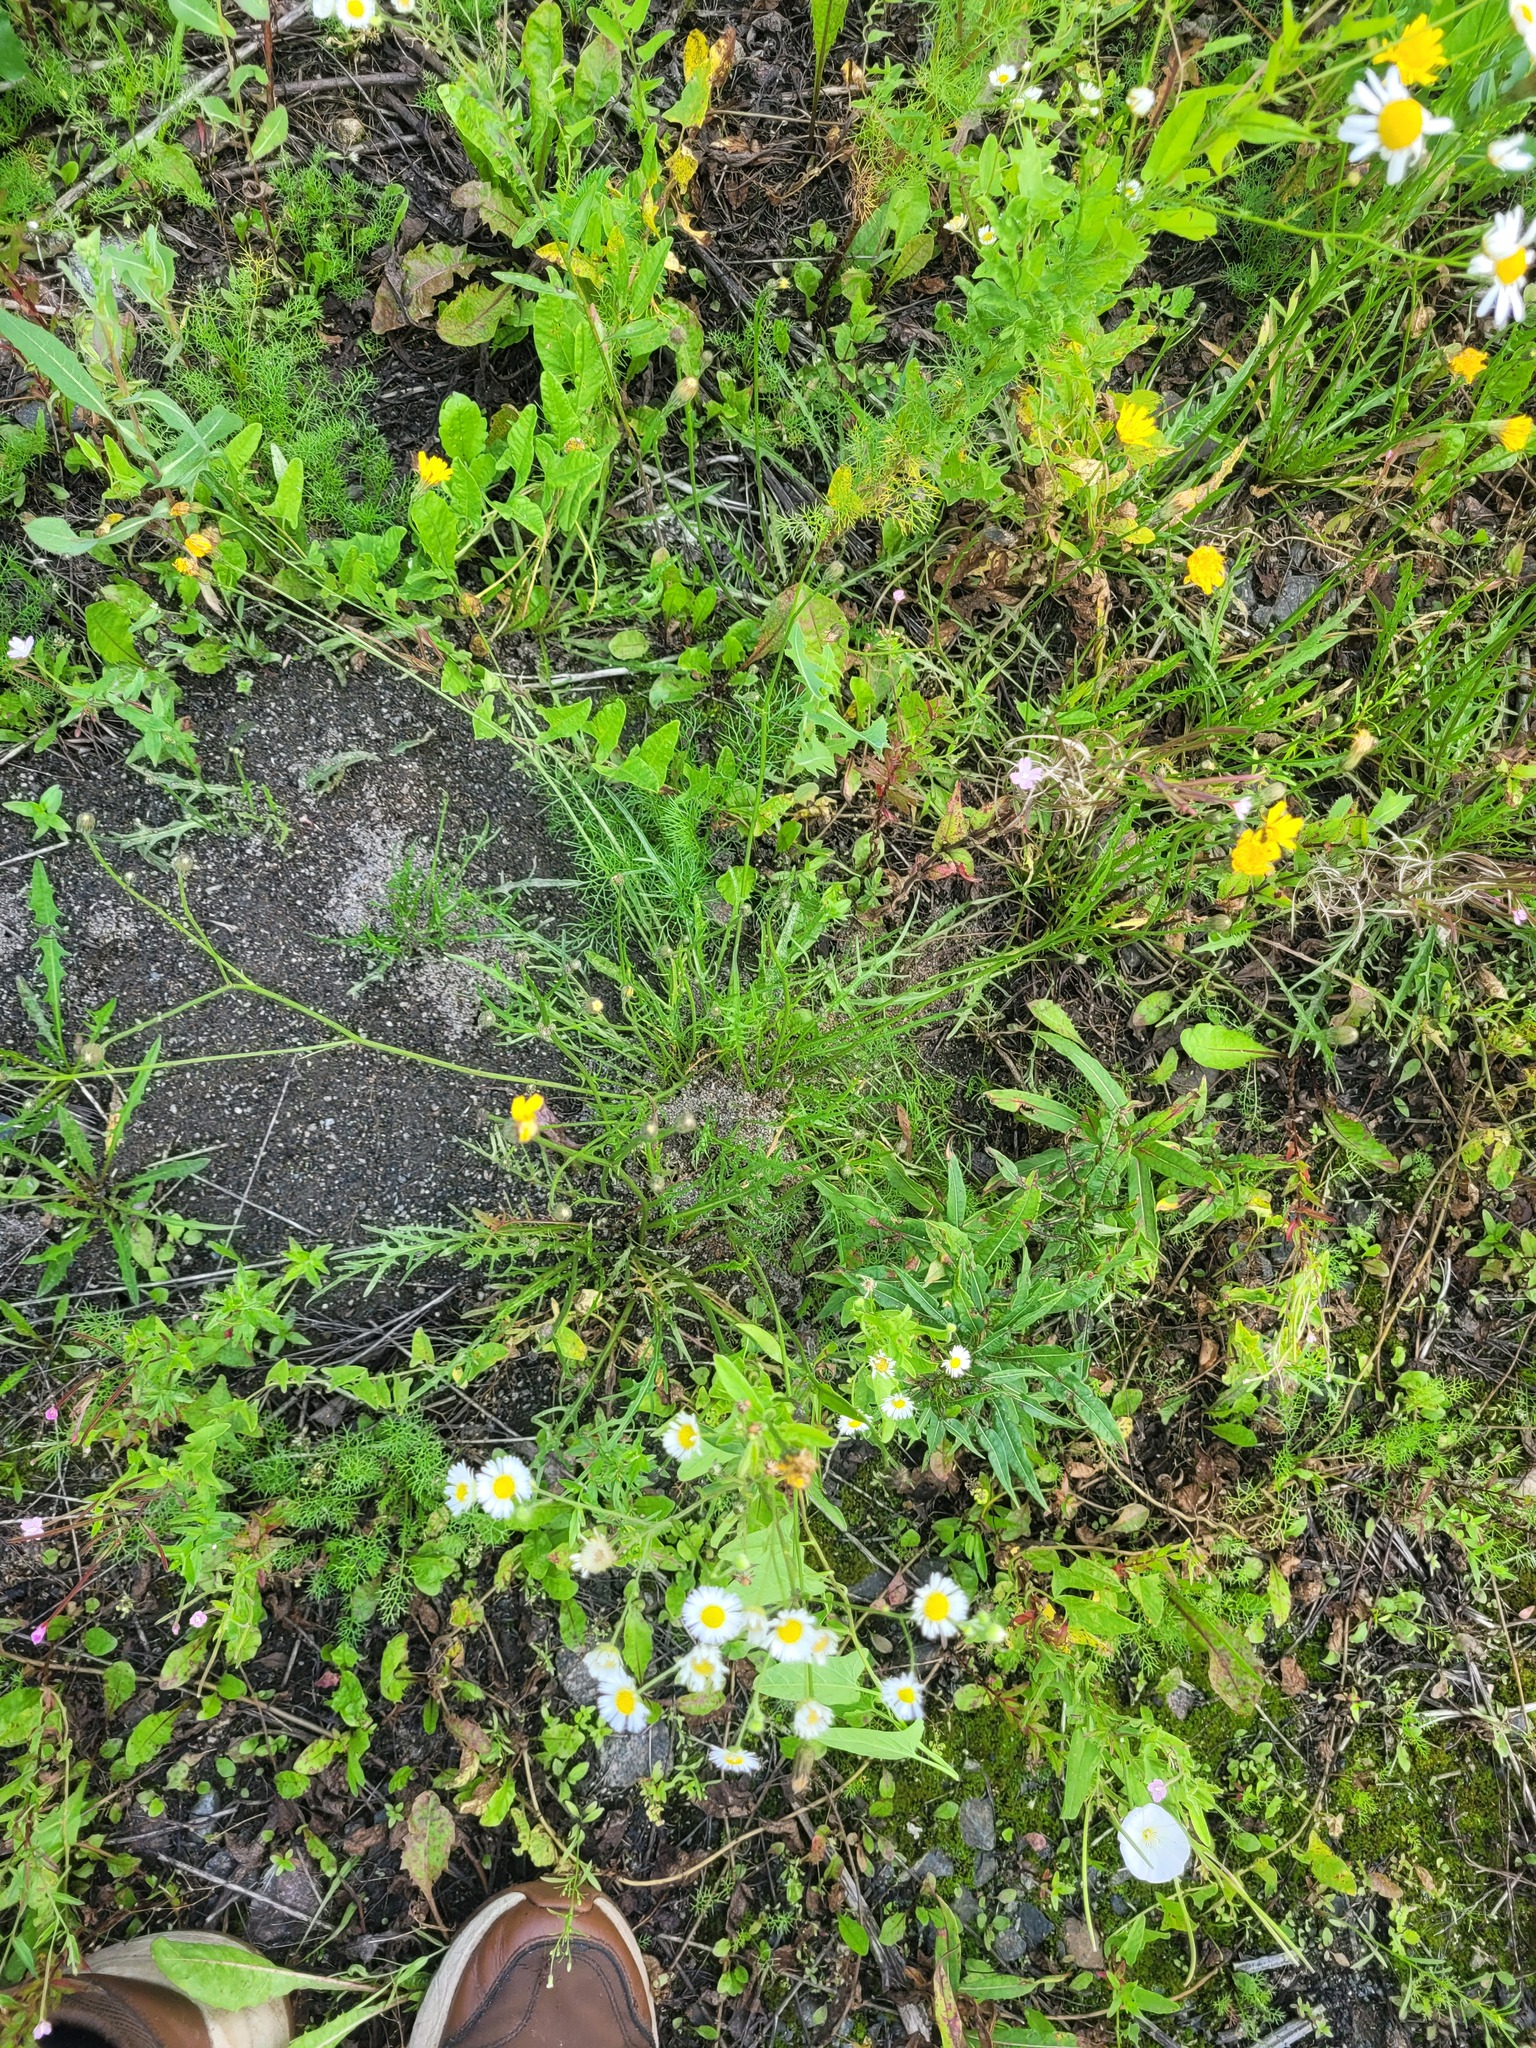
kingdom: Plantae
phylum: Tracheophyta
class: Magnoliopsida
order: Asterales
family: Asteraceae
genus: Scorzoneroides
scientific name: Scorzoneroides autumnalis
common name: Autumn hawkbit
